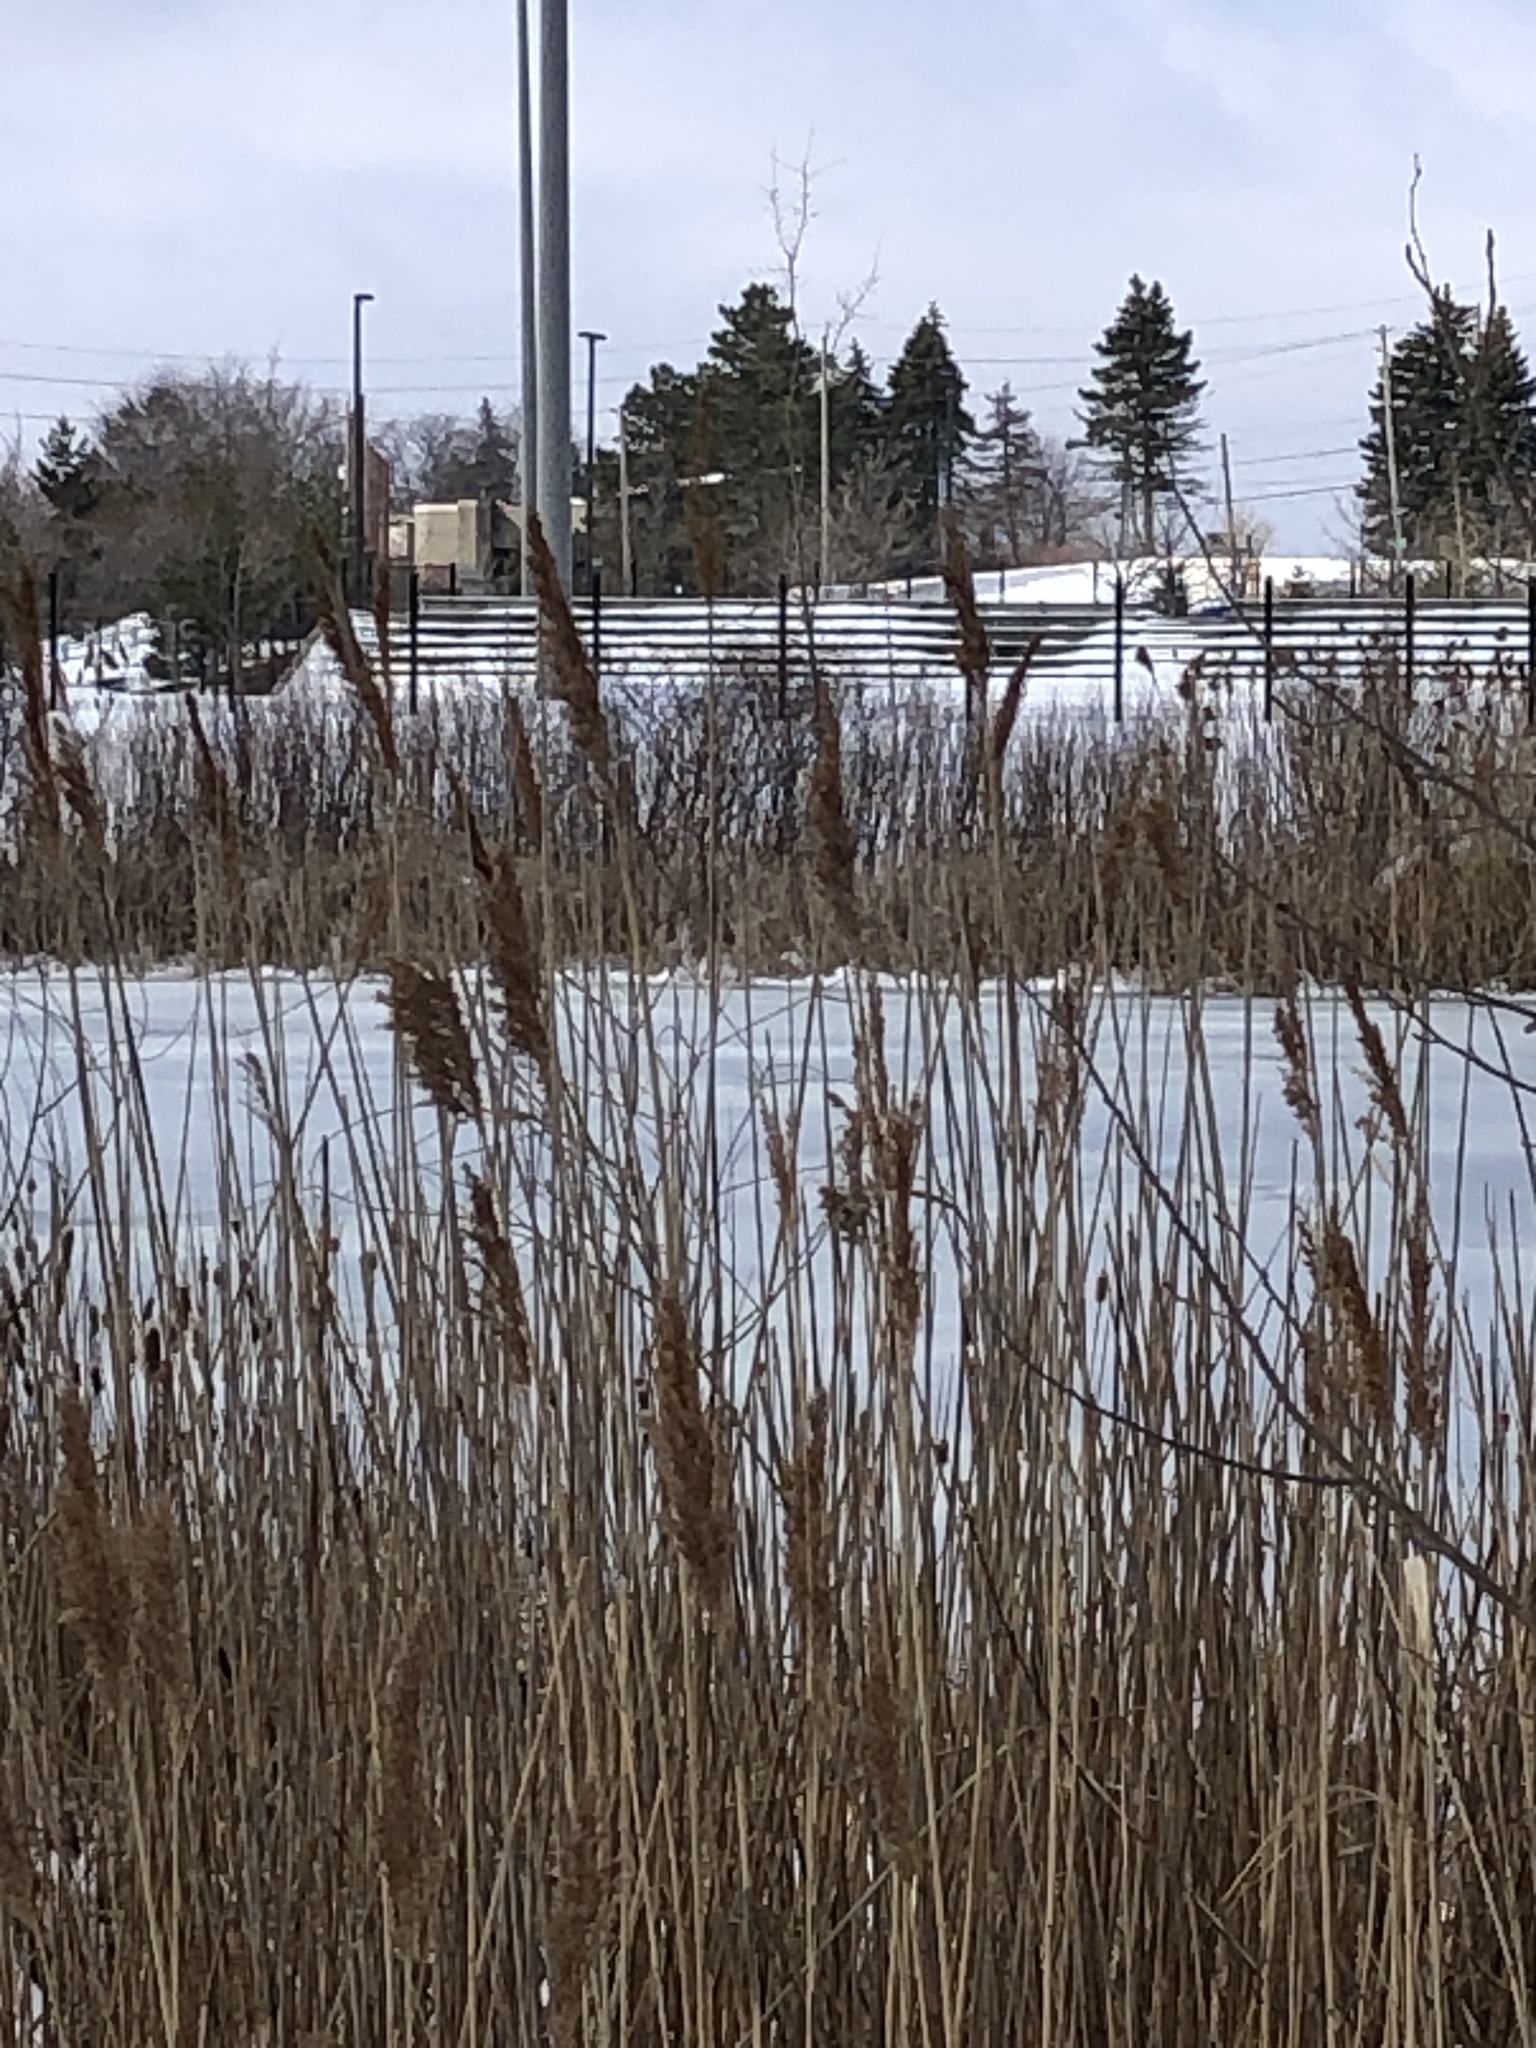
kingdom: Plantae
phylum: Tracheophyta
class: Liliopsida
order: Poales
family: Poaceae
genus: Phragmites
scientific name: Phragmites australis
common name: Common reed
